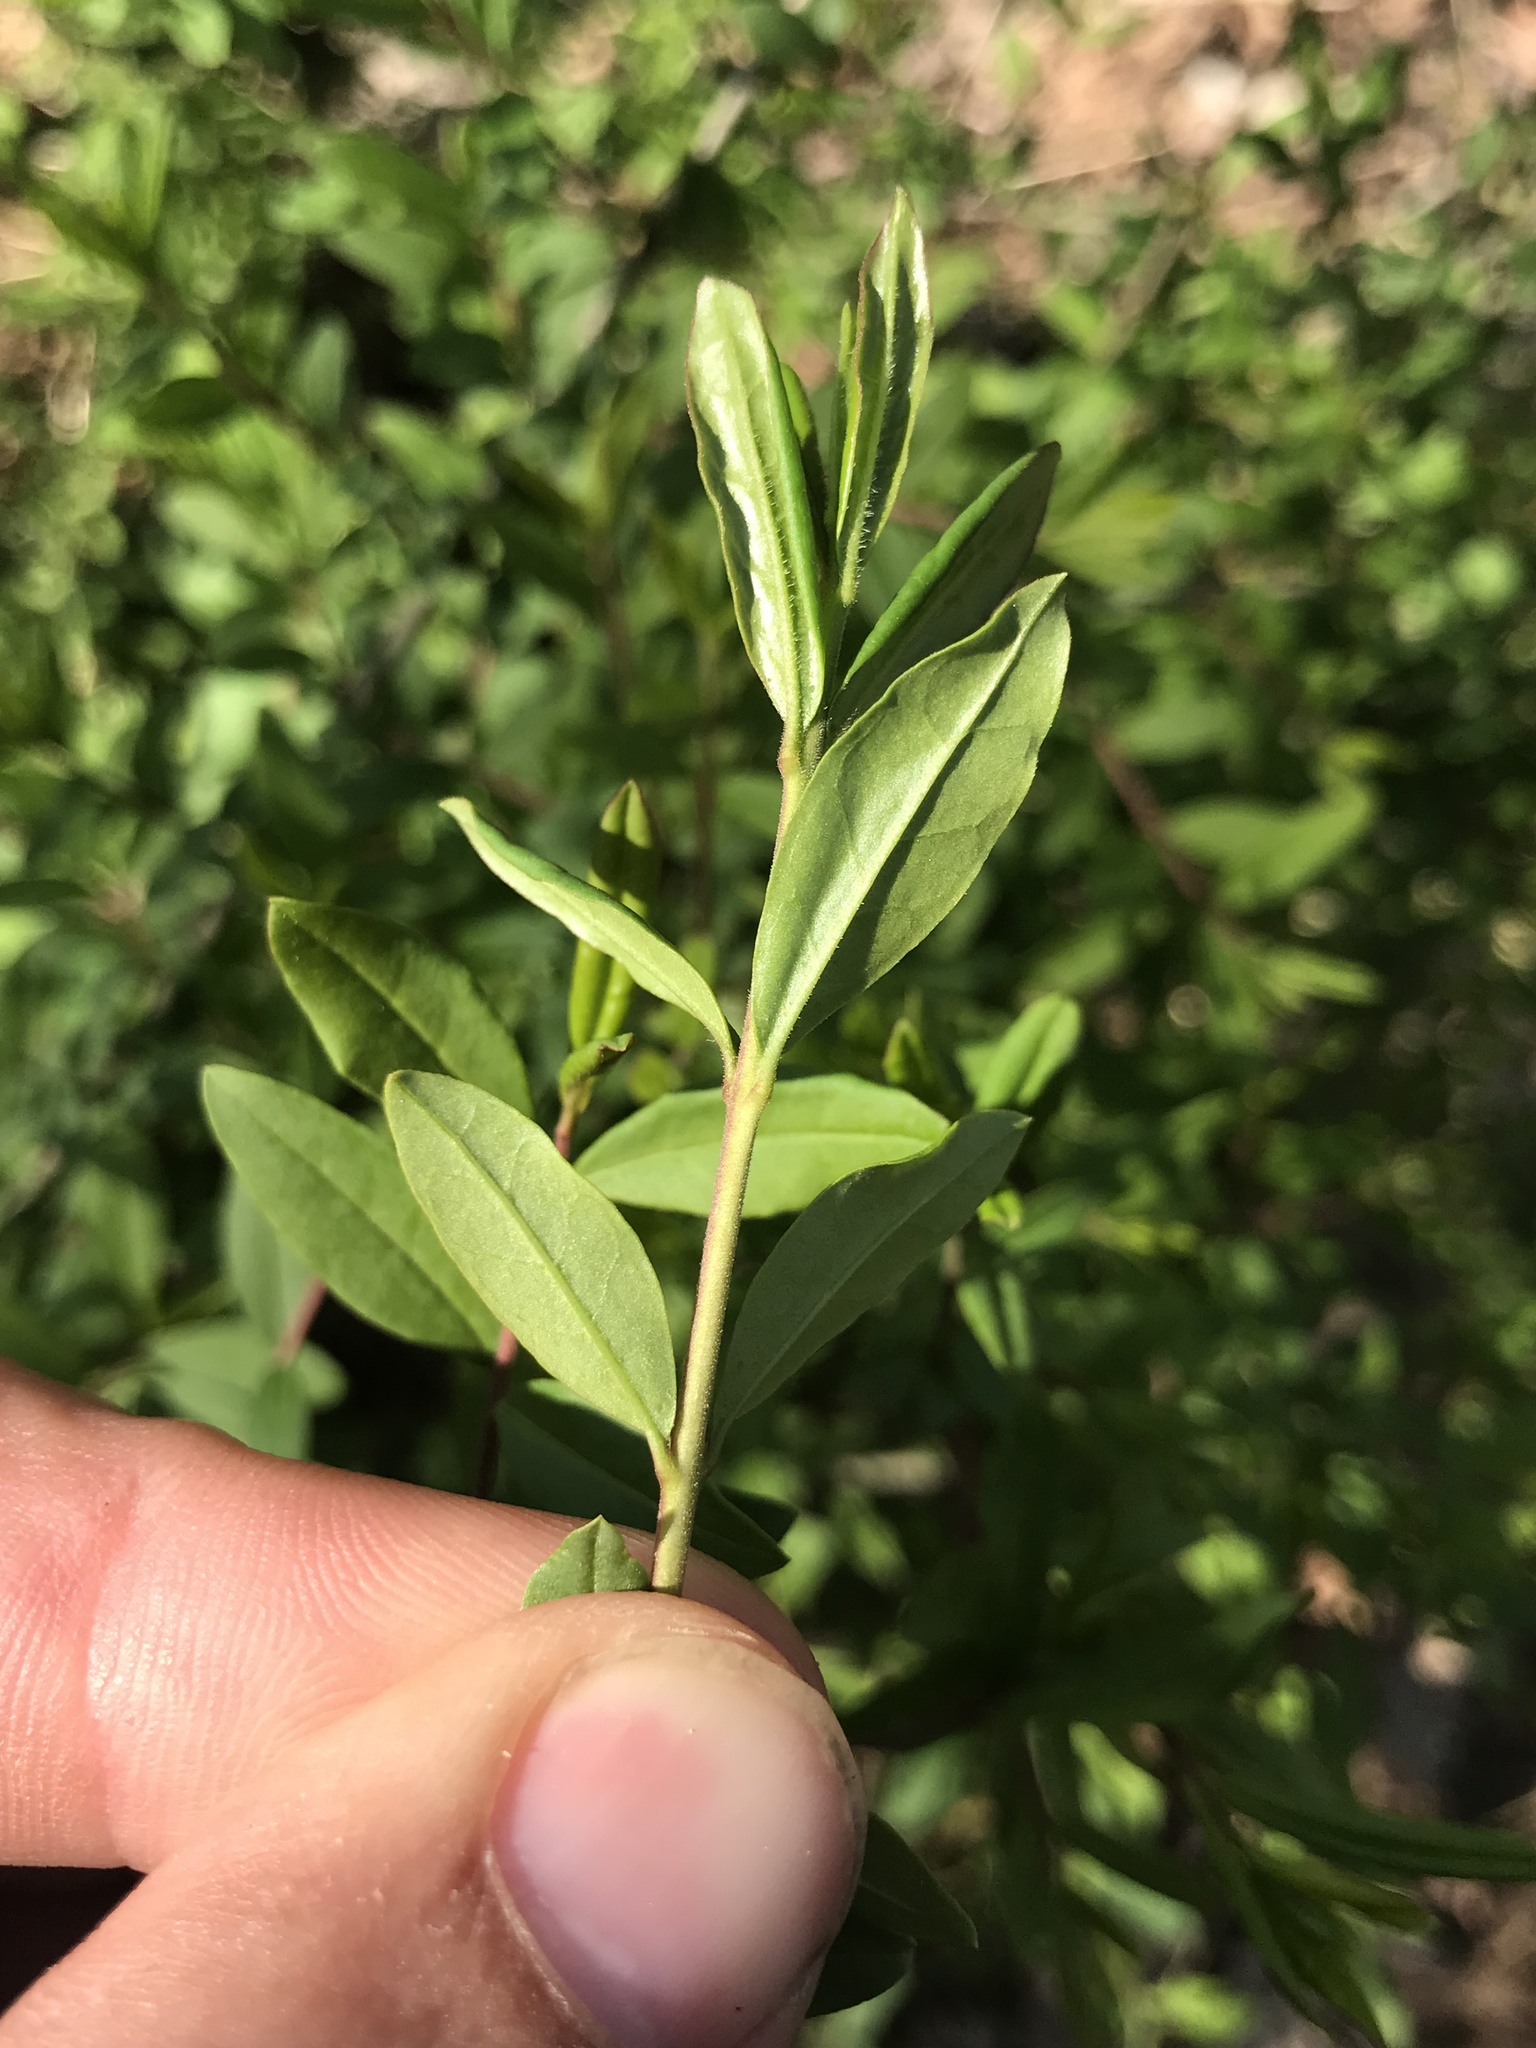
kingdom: Plantae
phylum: Tracheophyta
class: Magnoliopsida
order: Lamiales
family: Oleaceae
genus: Ligustrum
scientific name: Ligustrum
